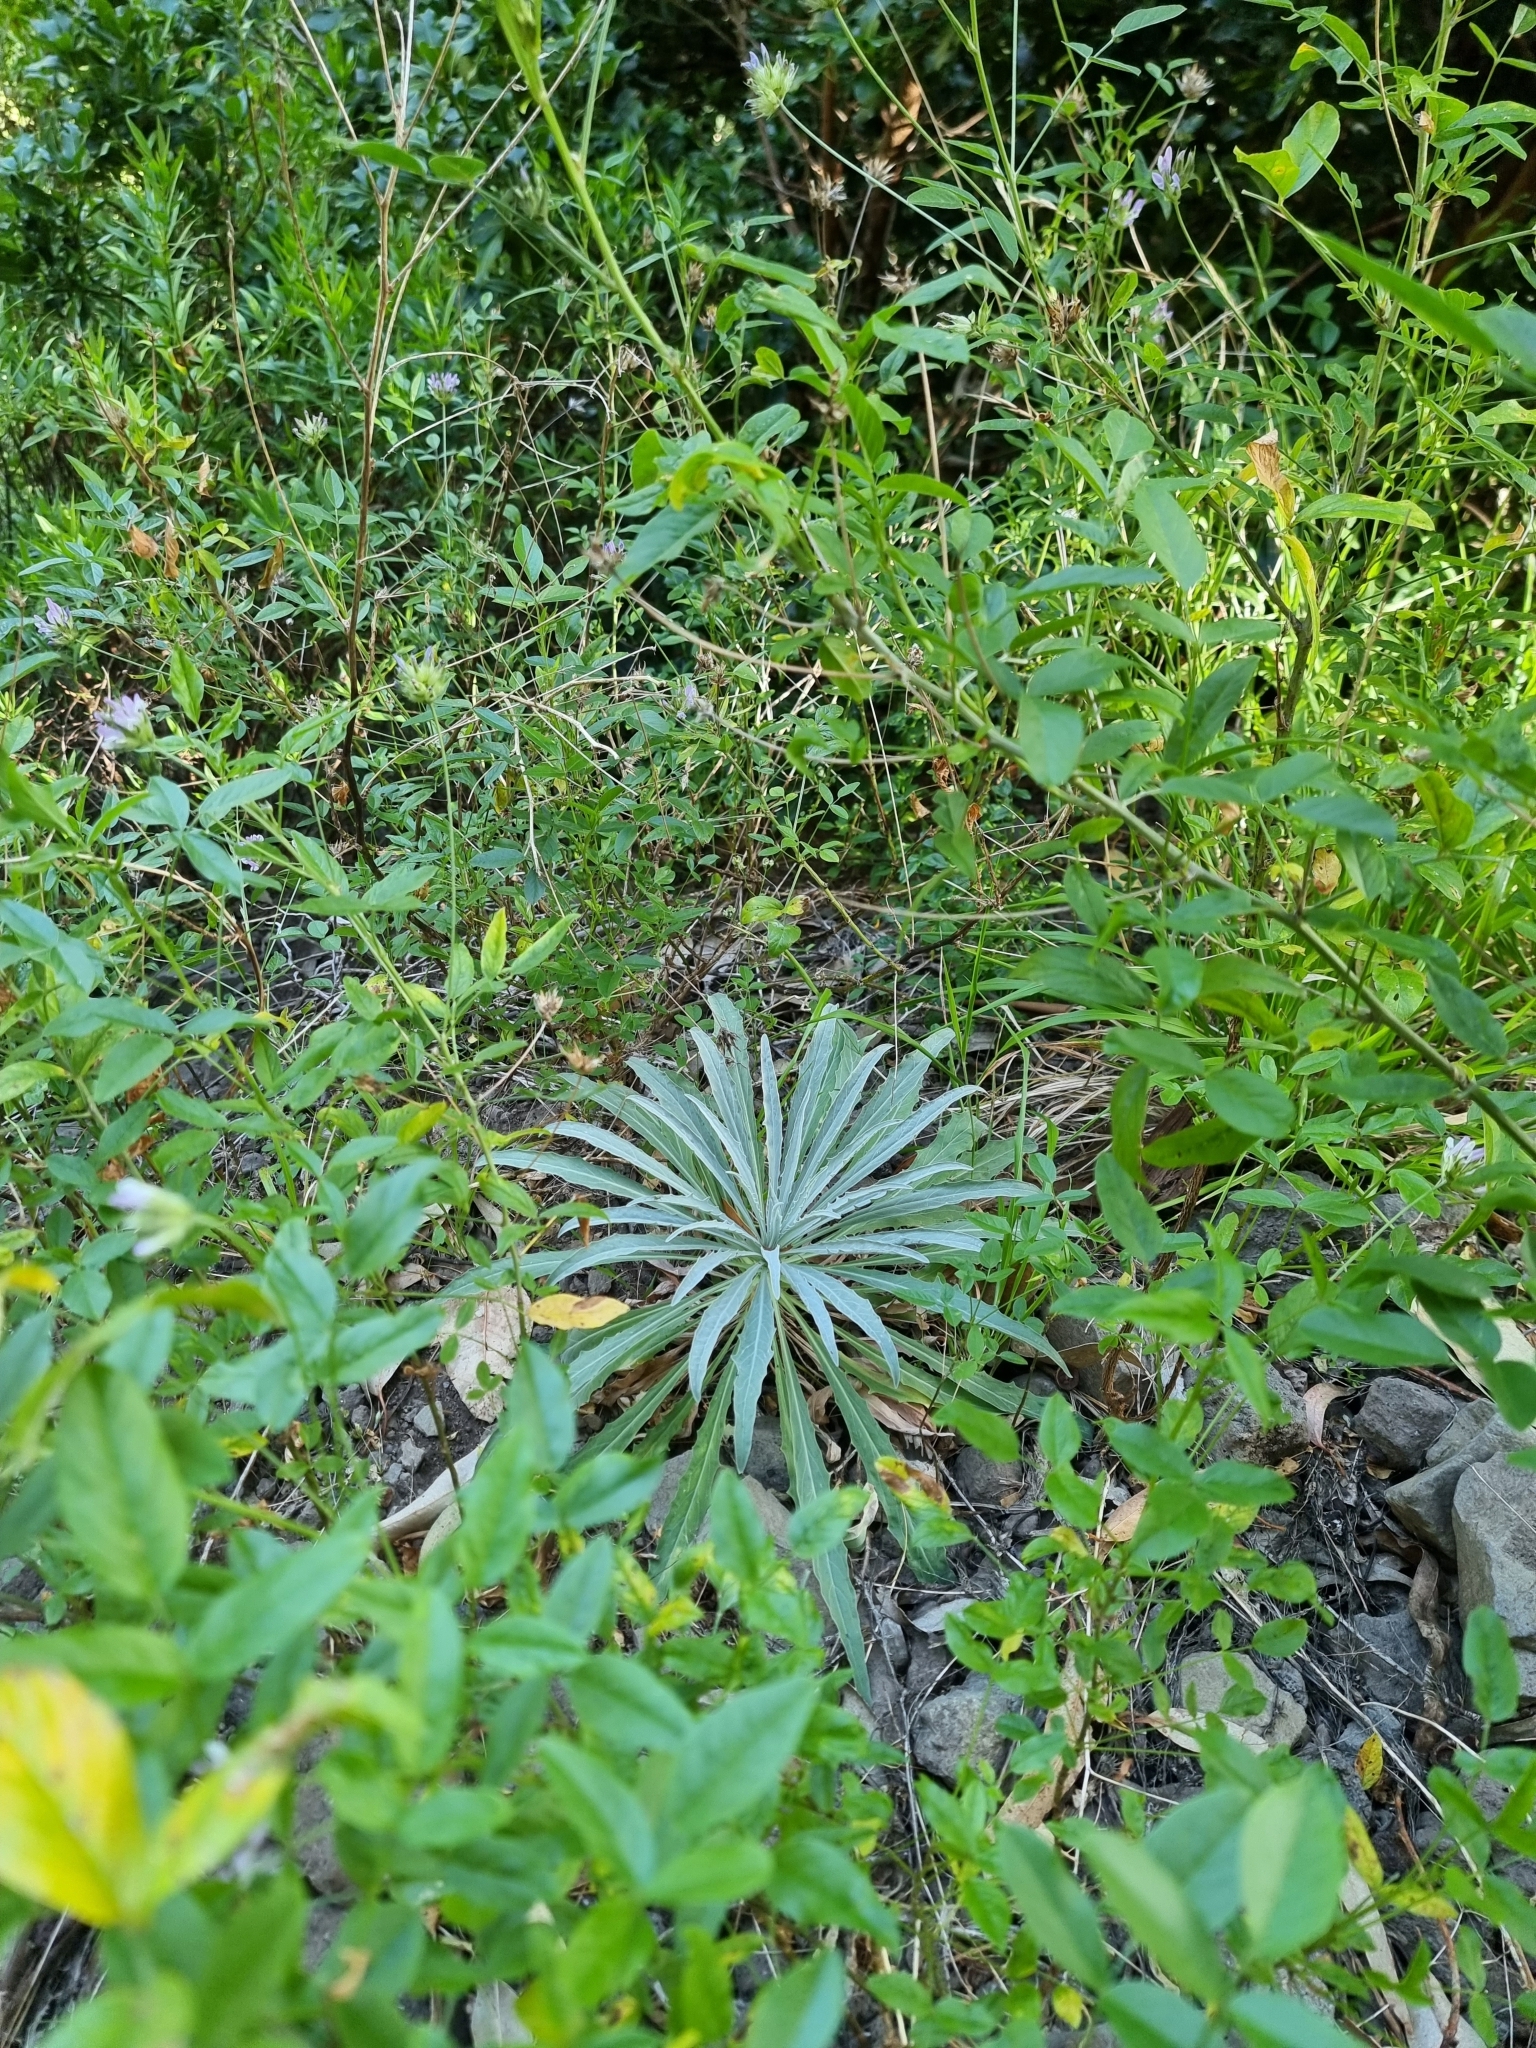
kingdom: Plantae
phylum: Tracheophyta
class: Magnoliopsida
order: Asterales
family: Asteraceae
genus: Andryala
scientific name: Andryala glandulosa
